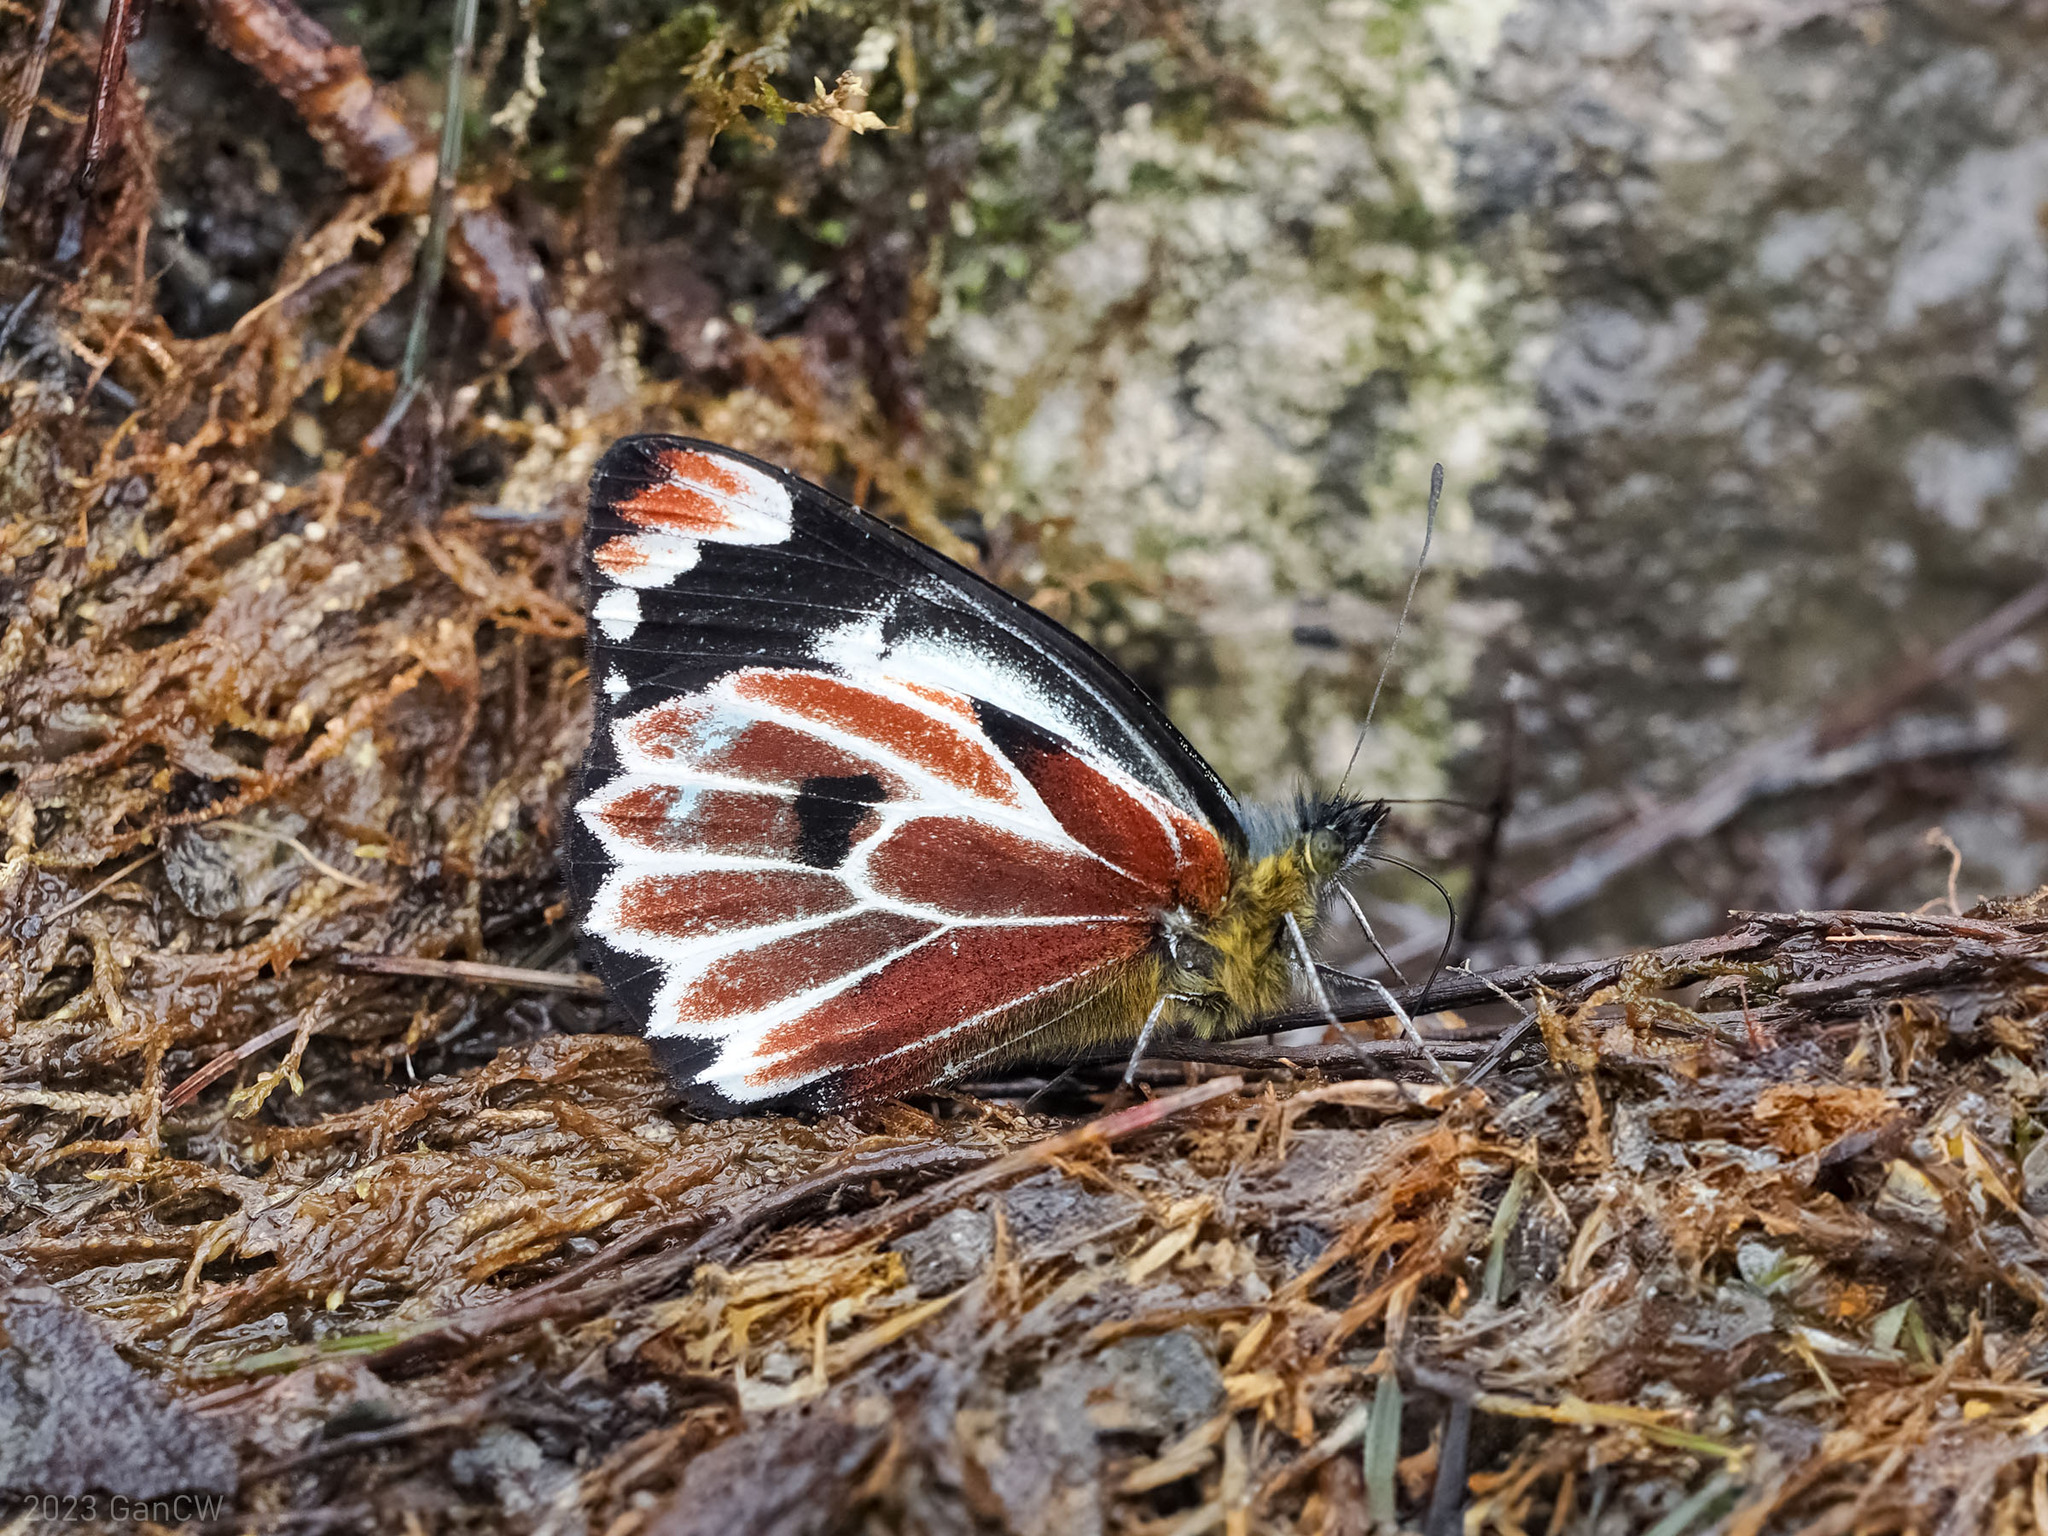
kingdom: Animalia
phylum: Arthropoda
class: Insecta
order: Lepidoptera
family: Pieridae
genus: Delias
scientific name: Delias klossi
